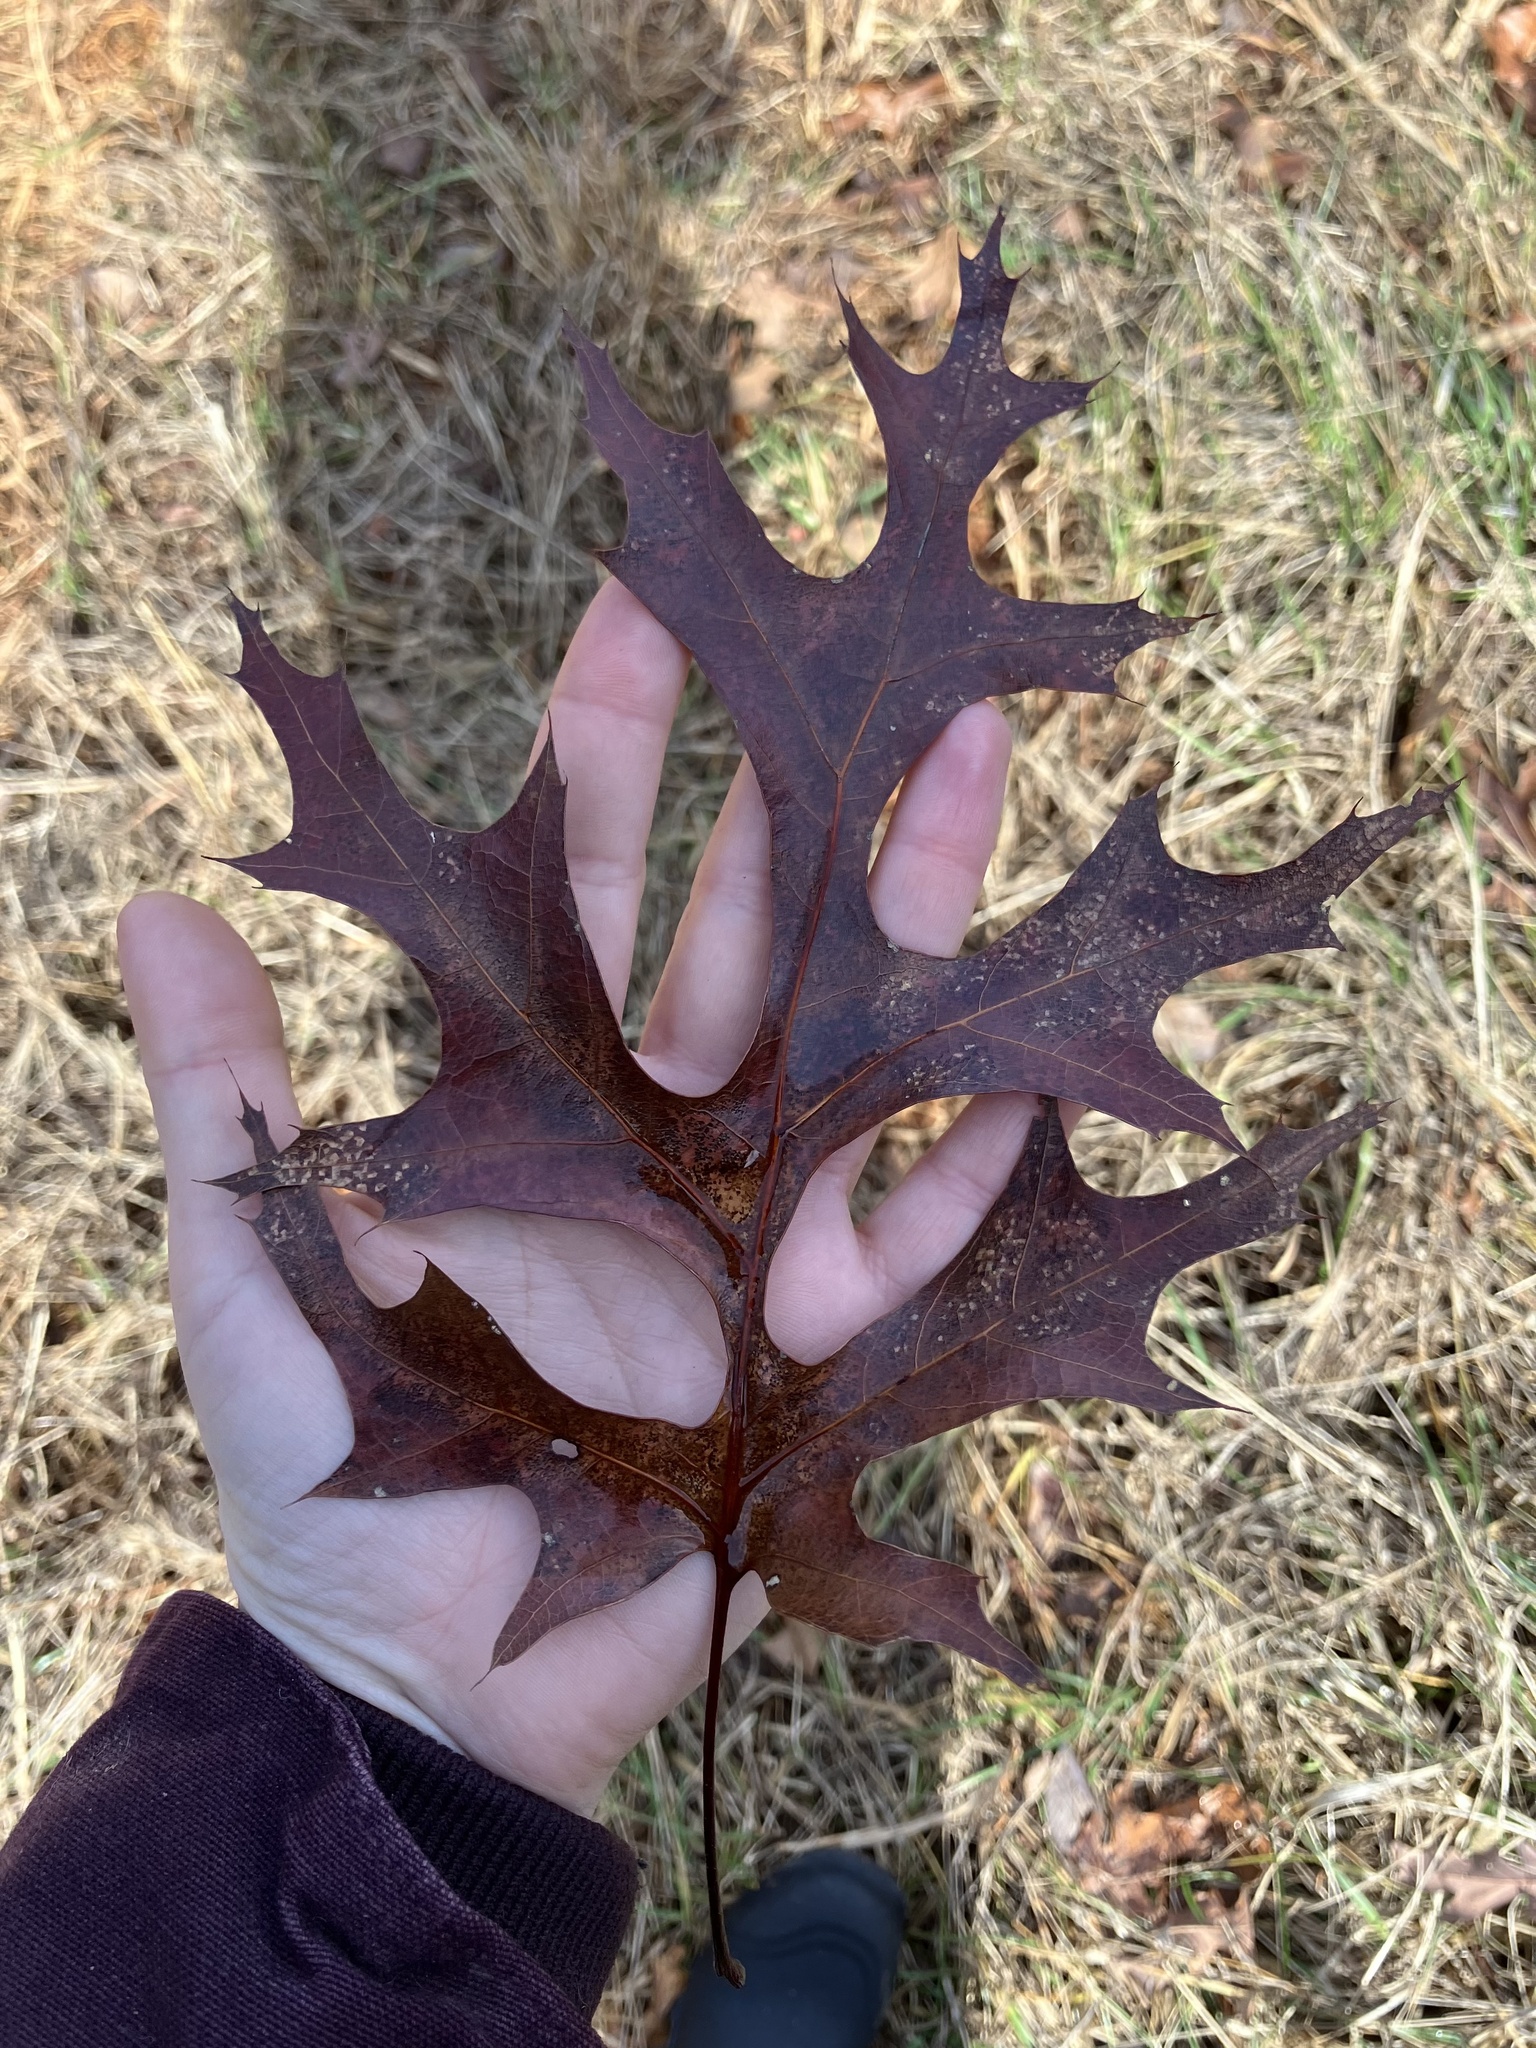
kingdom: Plantae
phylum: Tracheophyta
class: Magnoliopsida
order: Fagales
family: Fagaceae
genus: Quercus
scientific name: Quercus coccinea
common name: Scarlet oak
